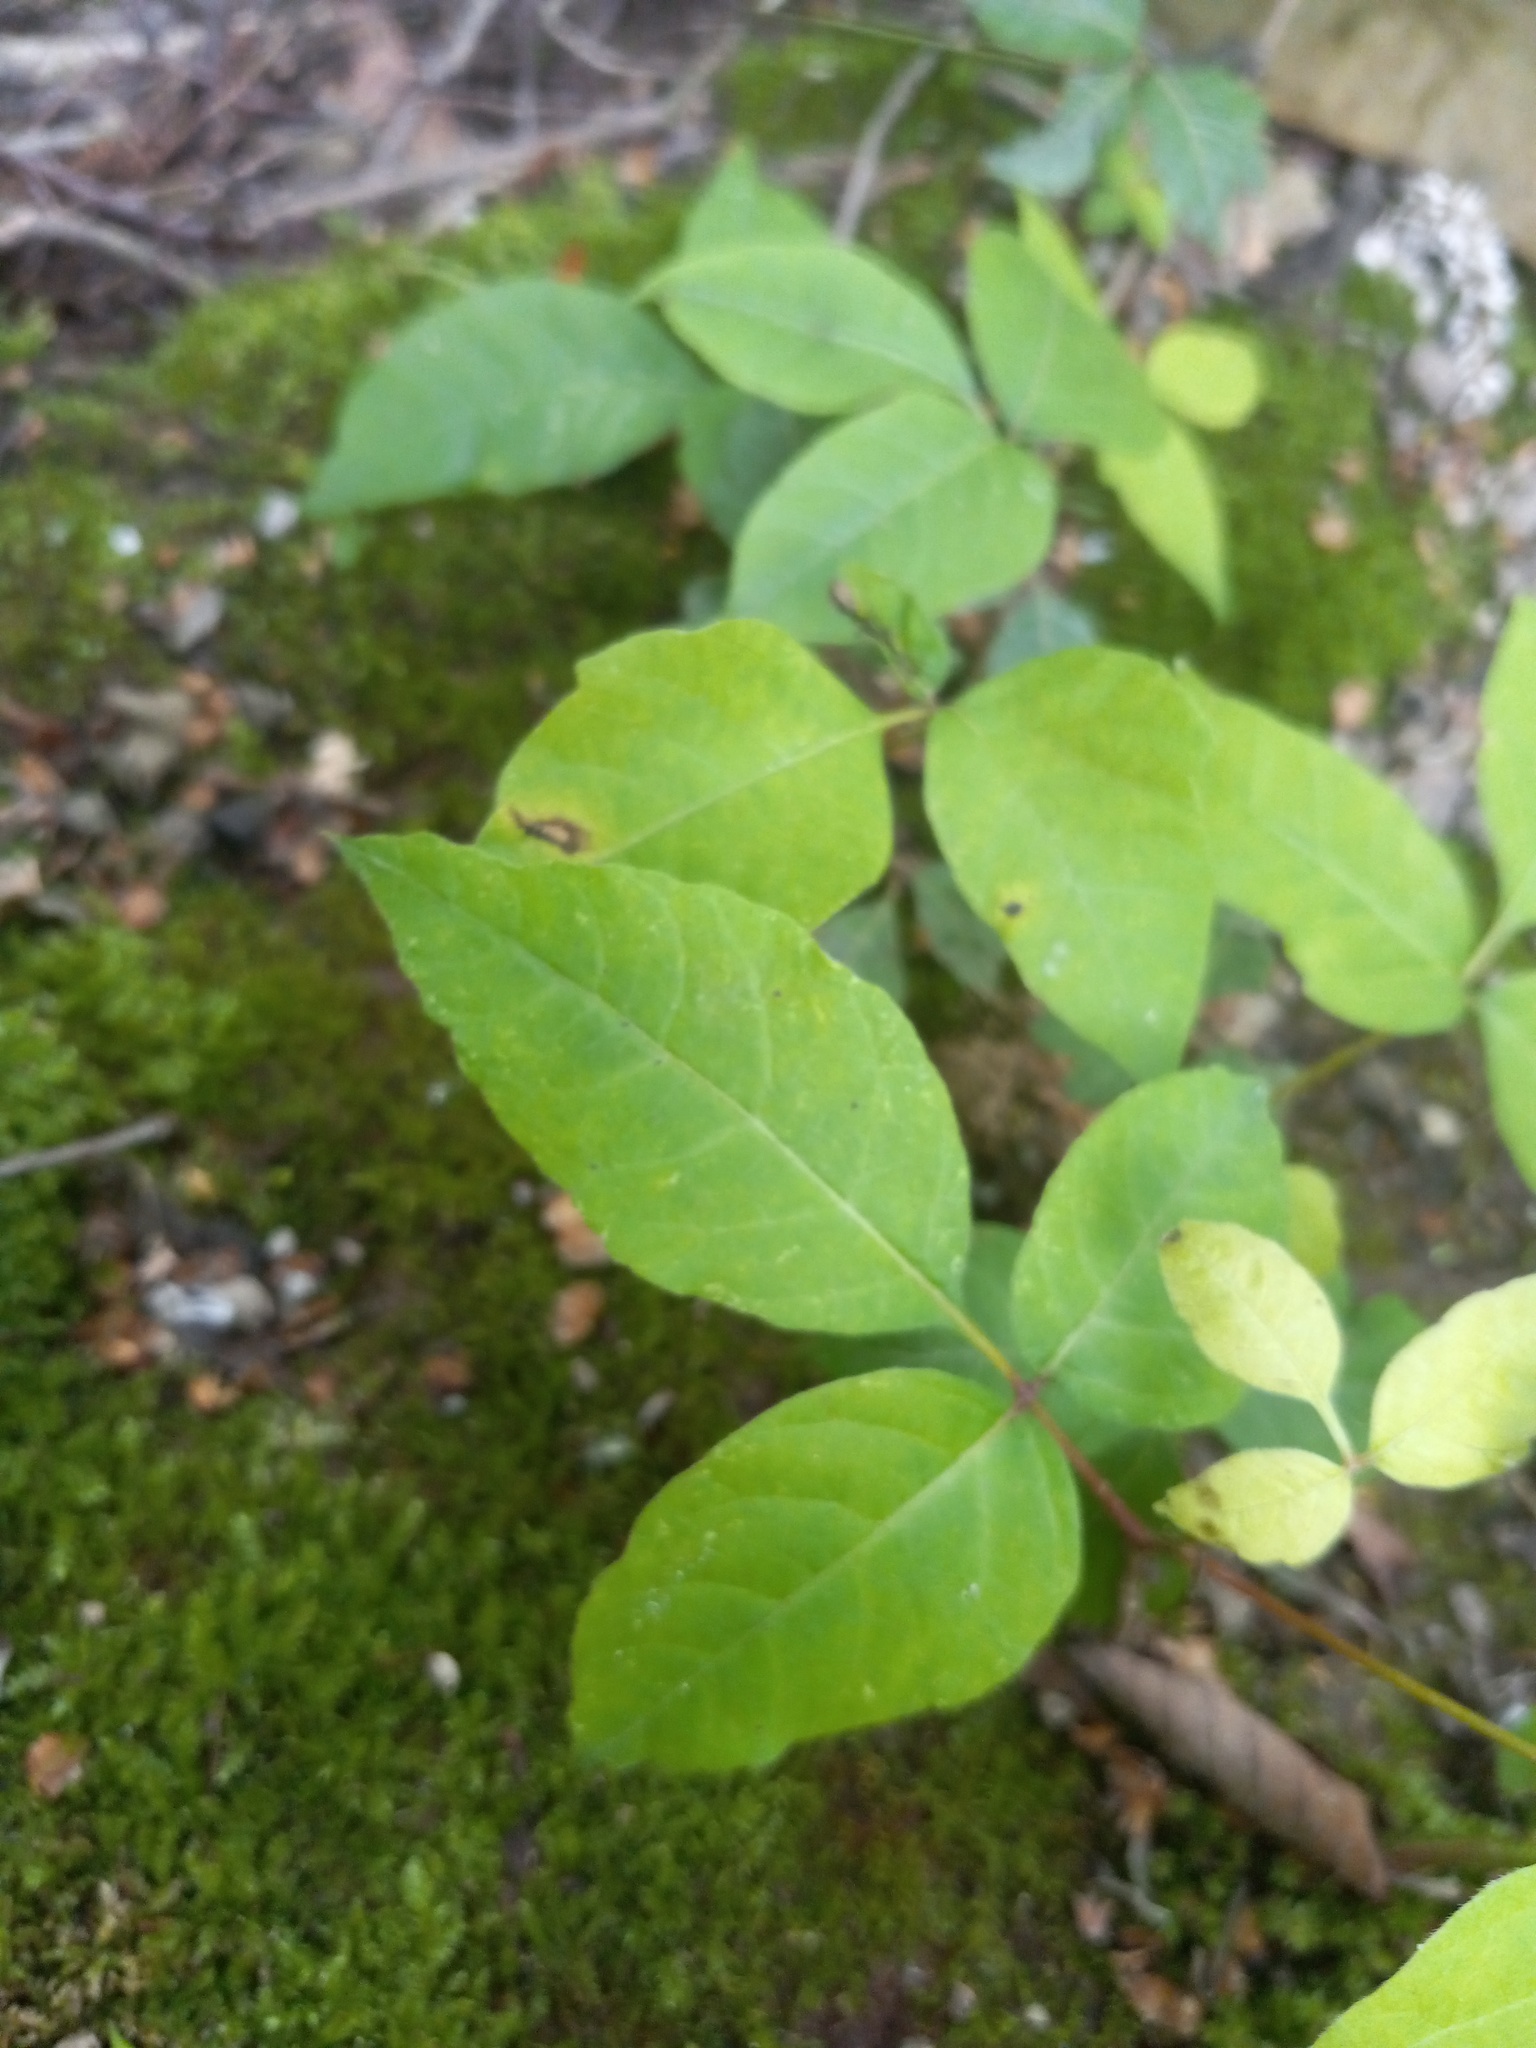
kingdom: Plantae
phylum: Tracheophyta
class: Magnoliopsida
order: Sapindales
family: Anacardiaceae
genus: Toxicodendron
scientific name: Toxicodendron radicans
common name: Poison ivy
